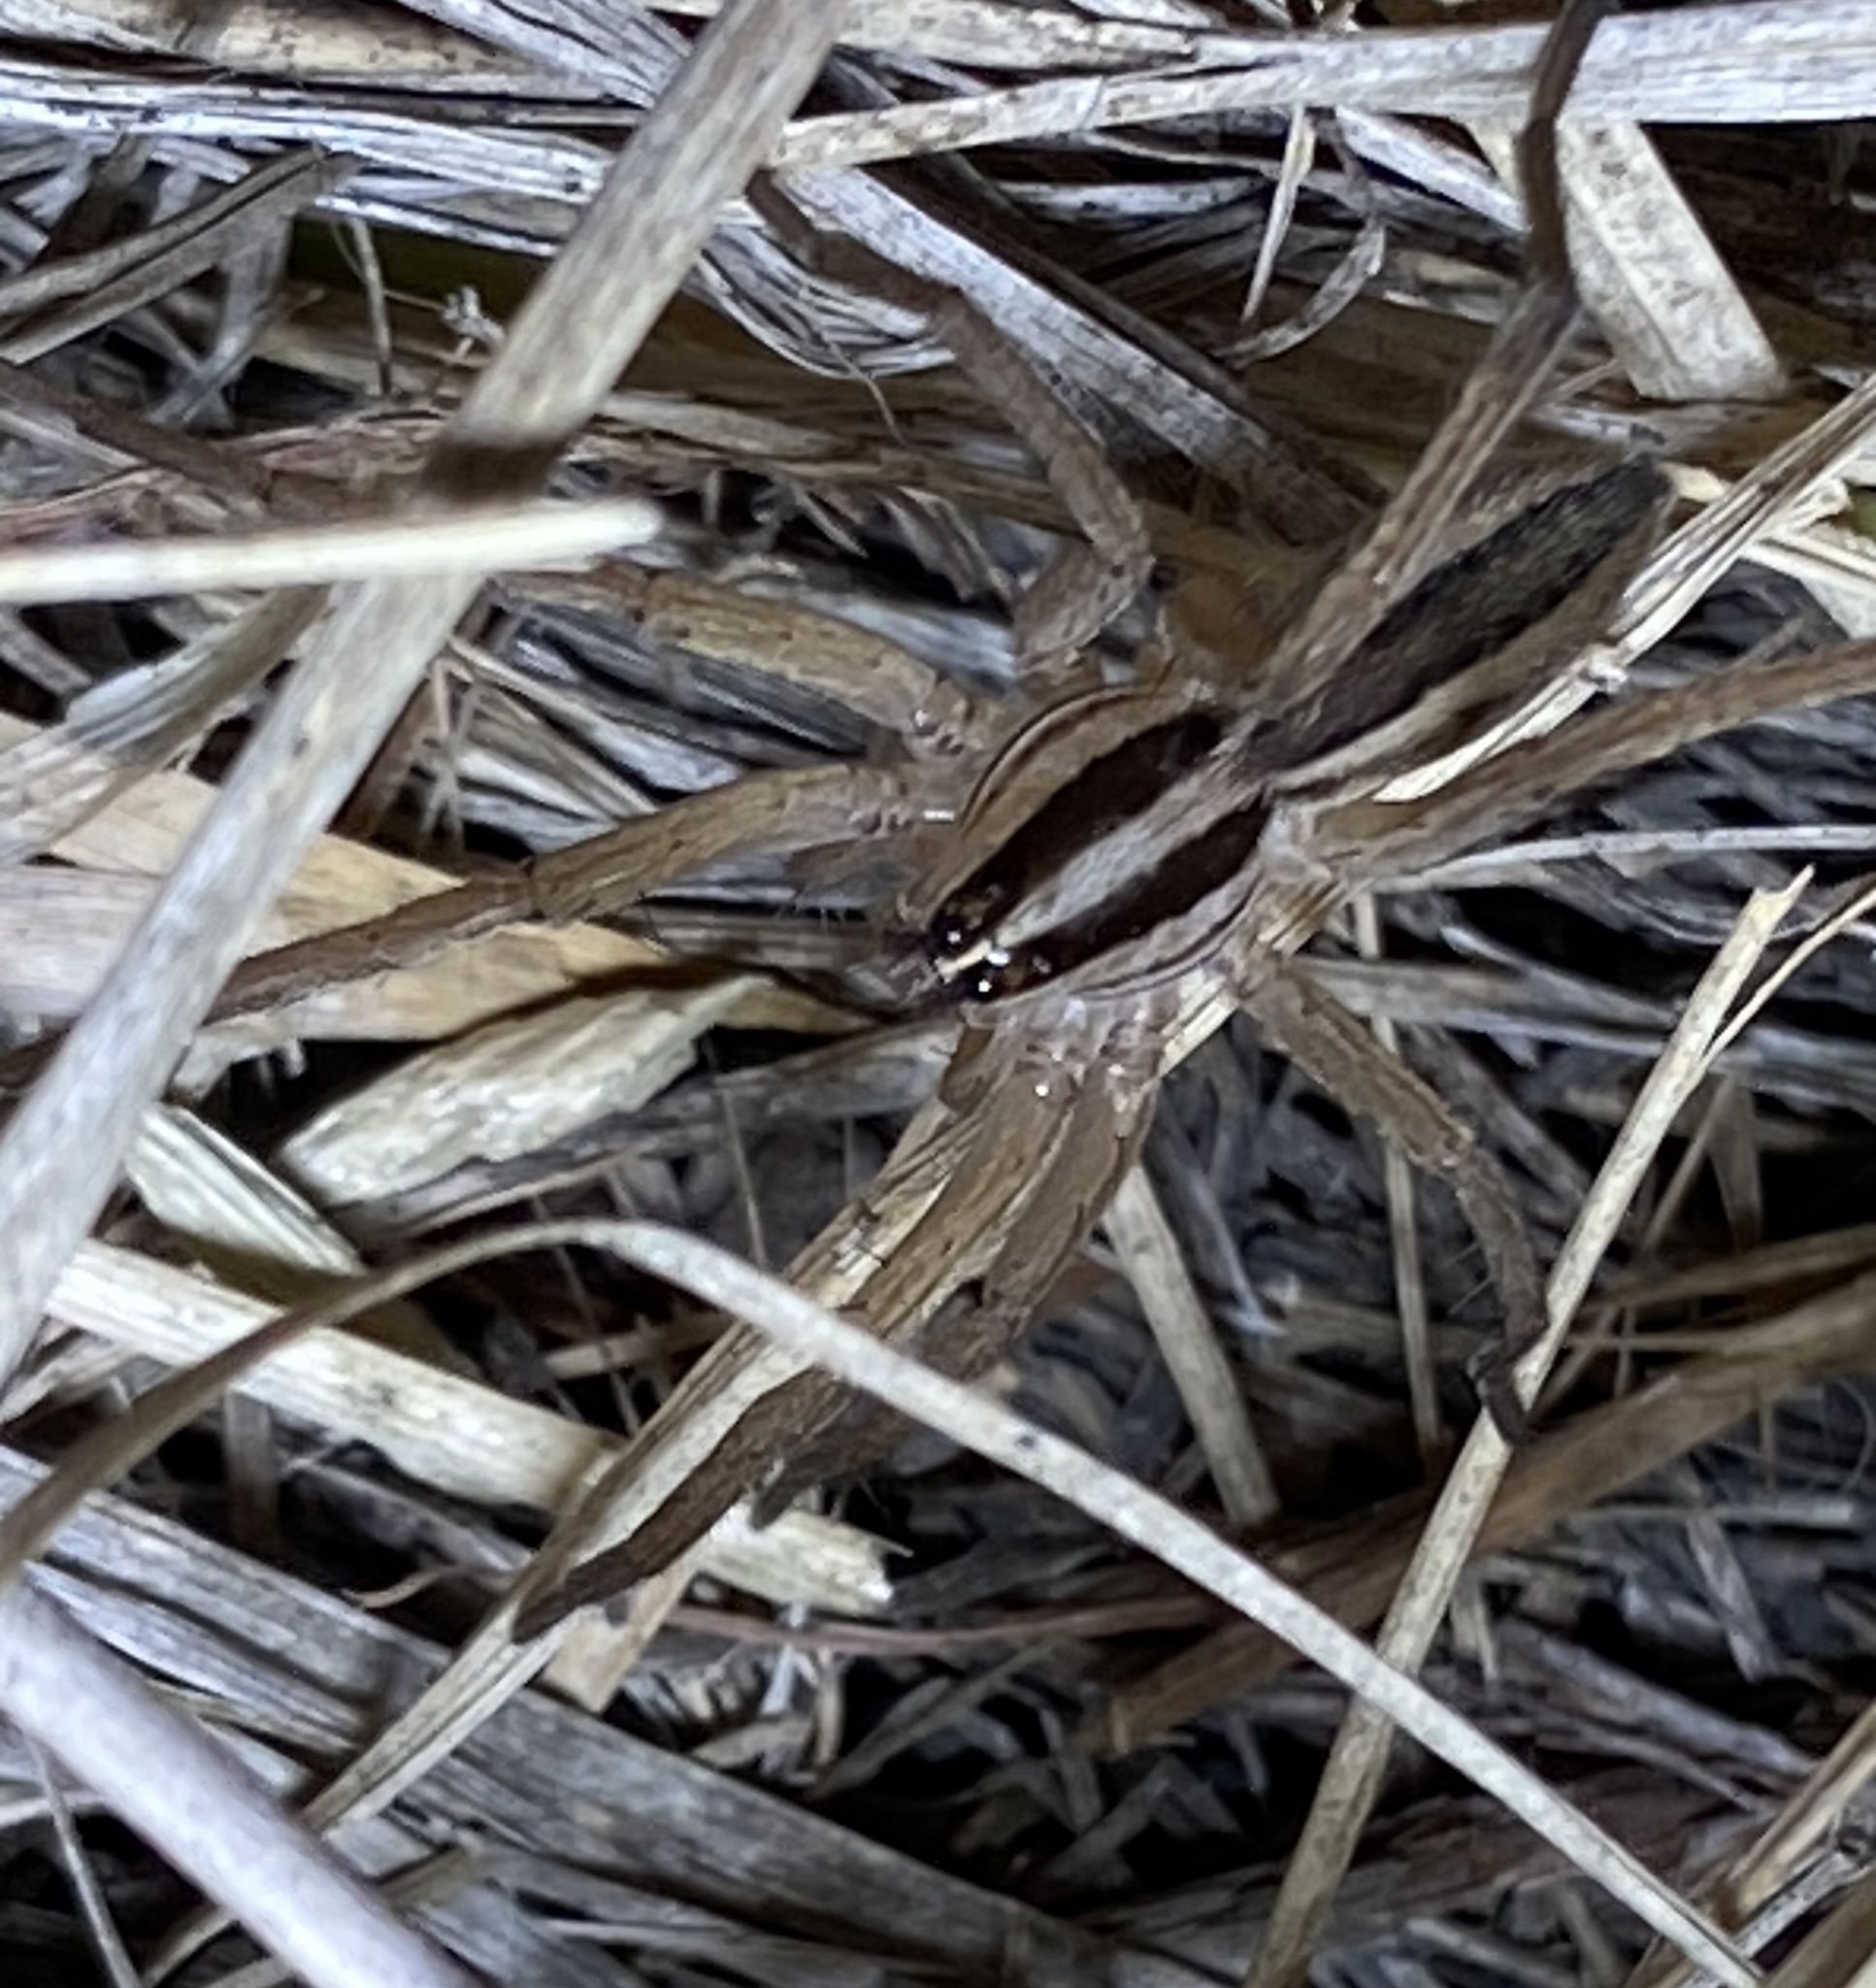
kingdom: Animalia
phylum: Arthropoda
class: Arachnida
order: Araneae
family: Lycosidae
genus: Rabidosa
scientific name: Rabidosa punctulata
